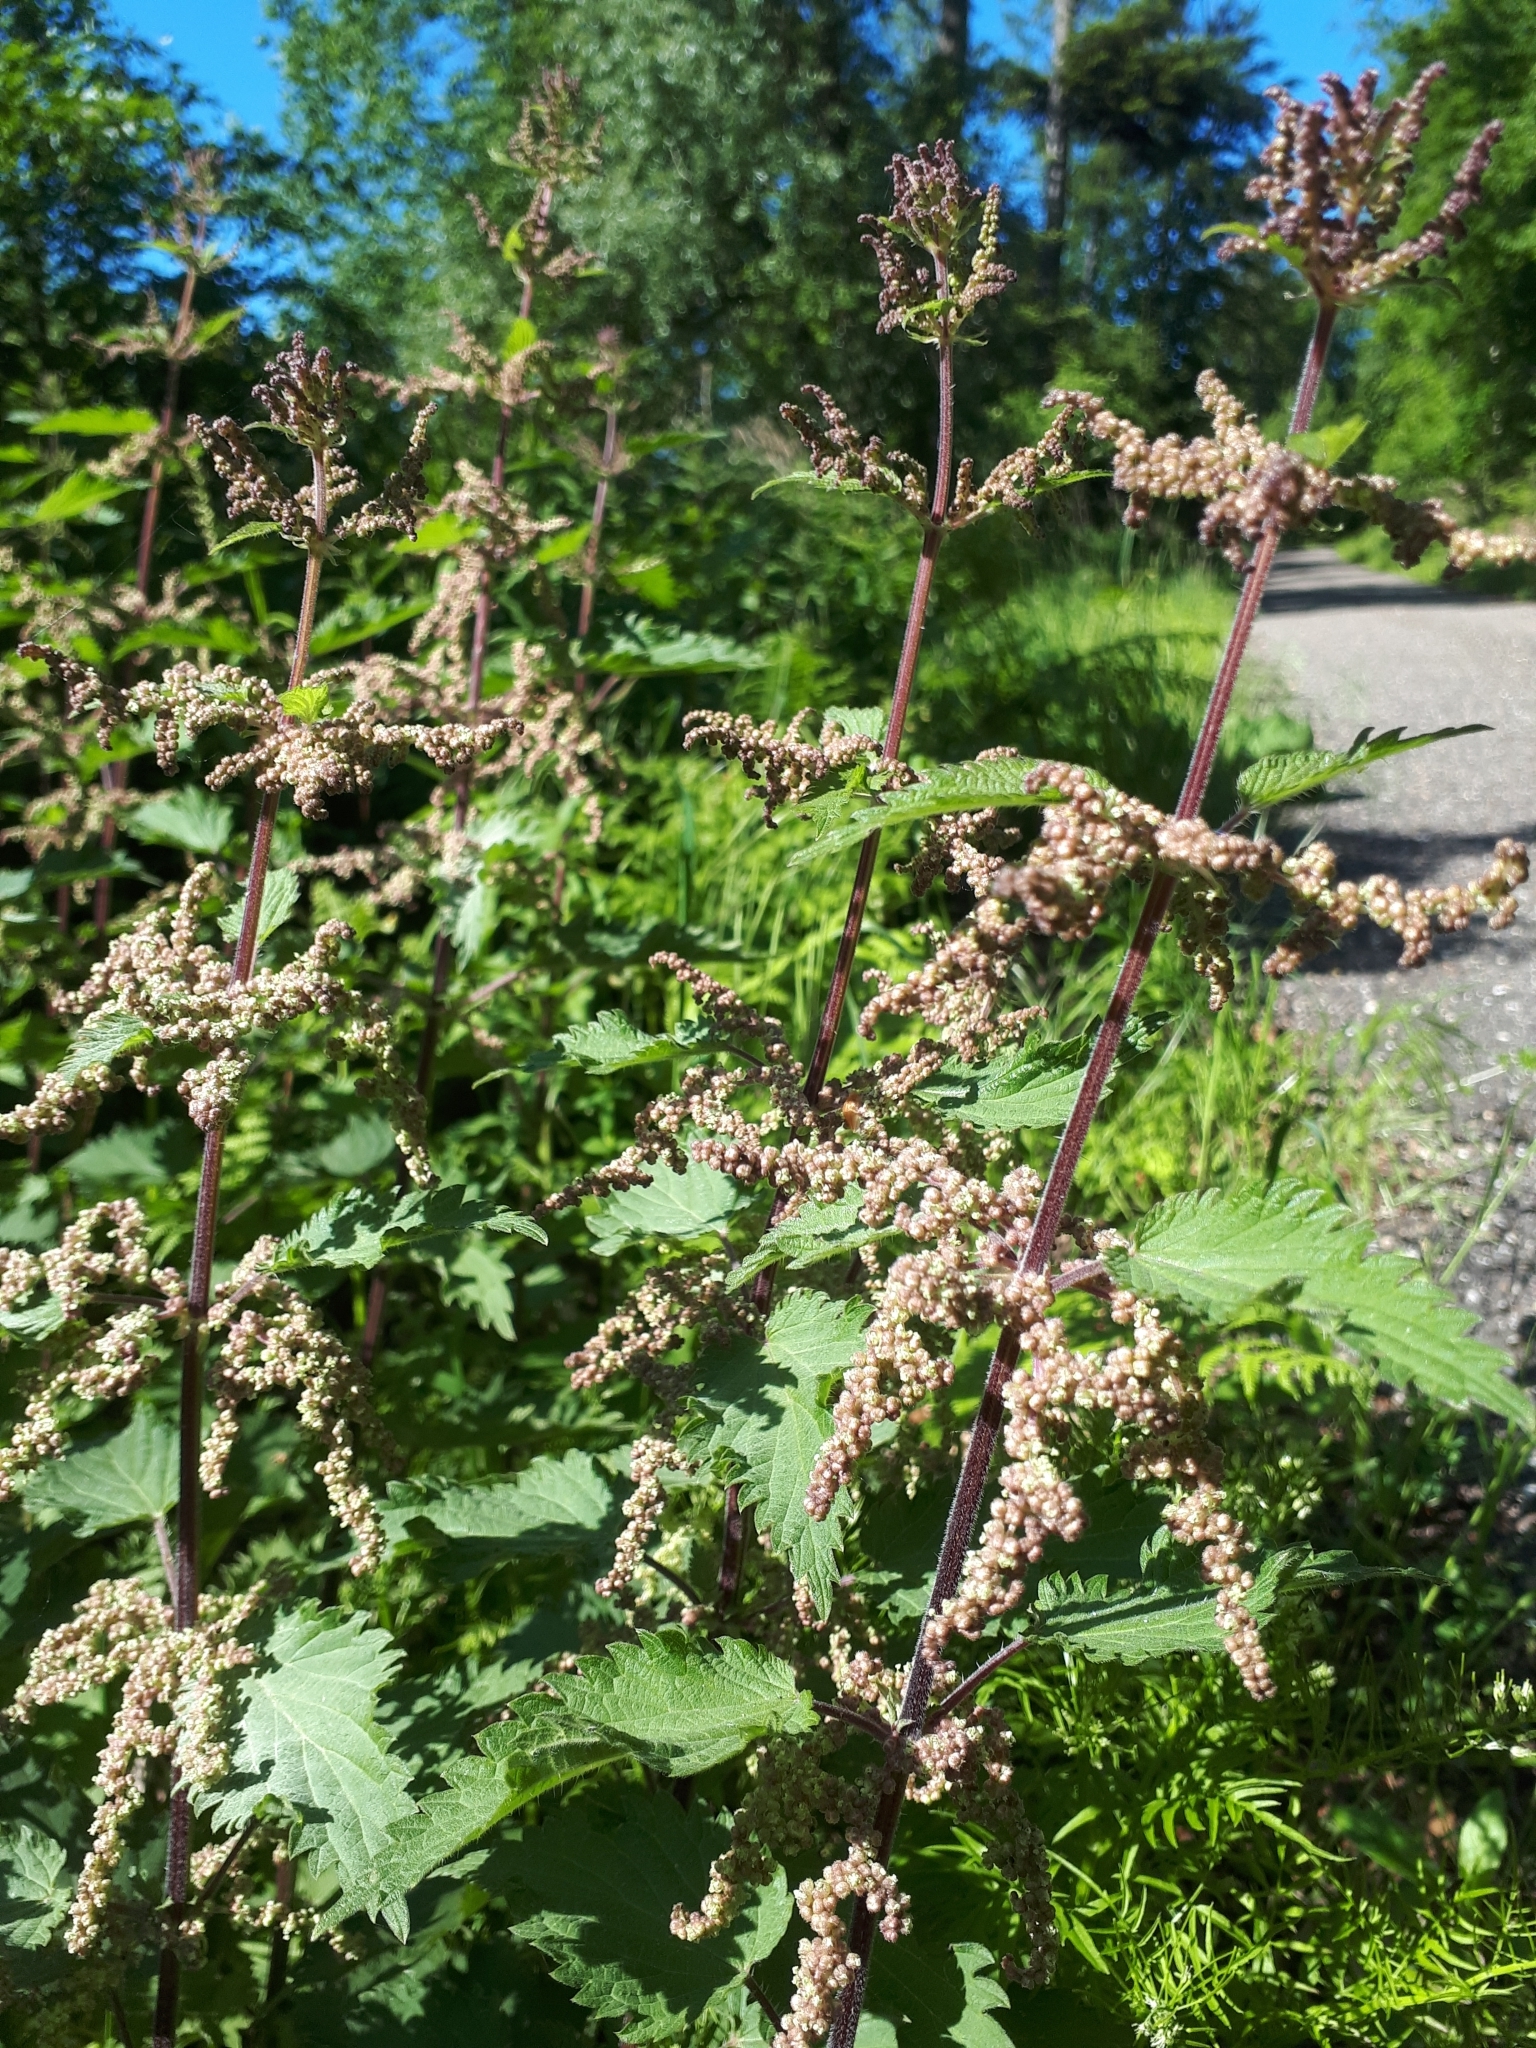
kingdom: Plantae
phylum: Tracheophyta
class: Magnoliopsida
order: Rosales
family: Urticaceae
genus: Urtica
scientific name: Urtica dioica
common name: Common nettle
